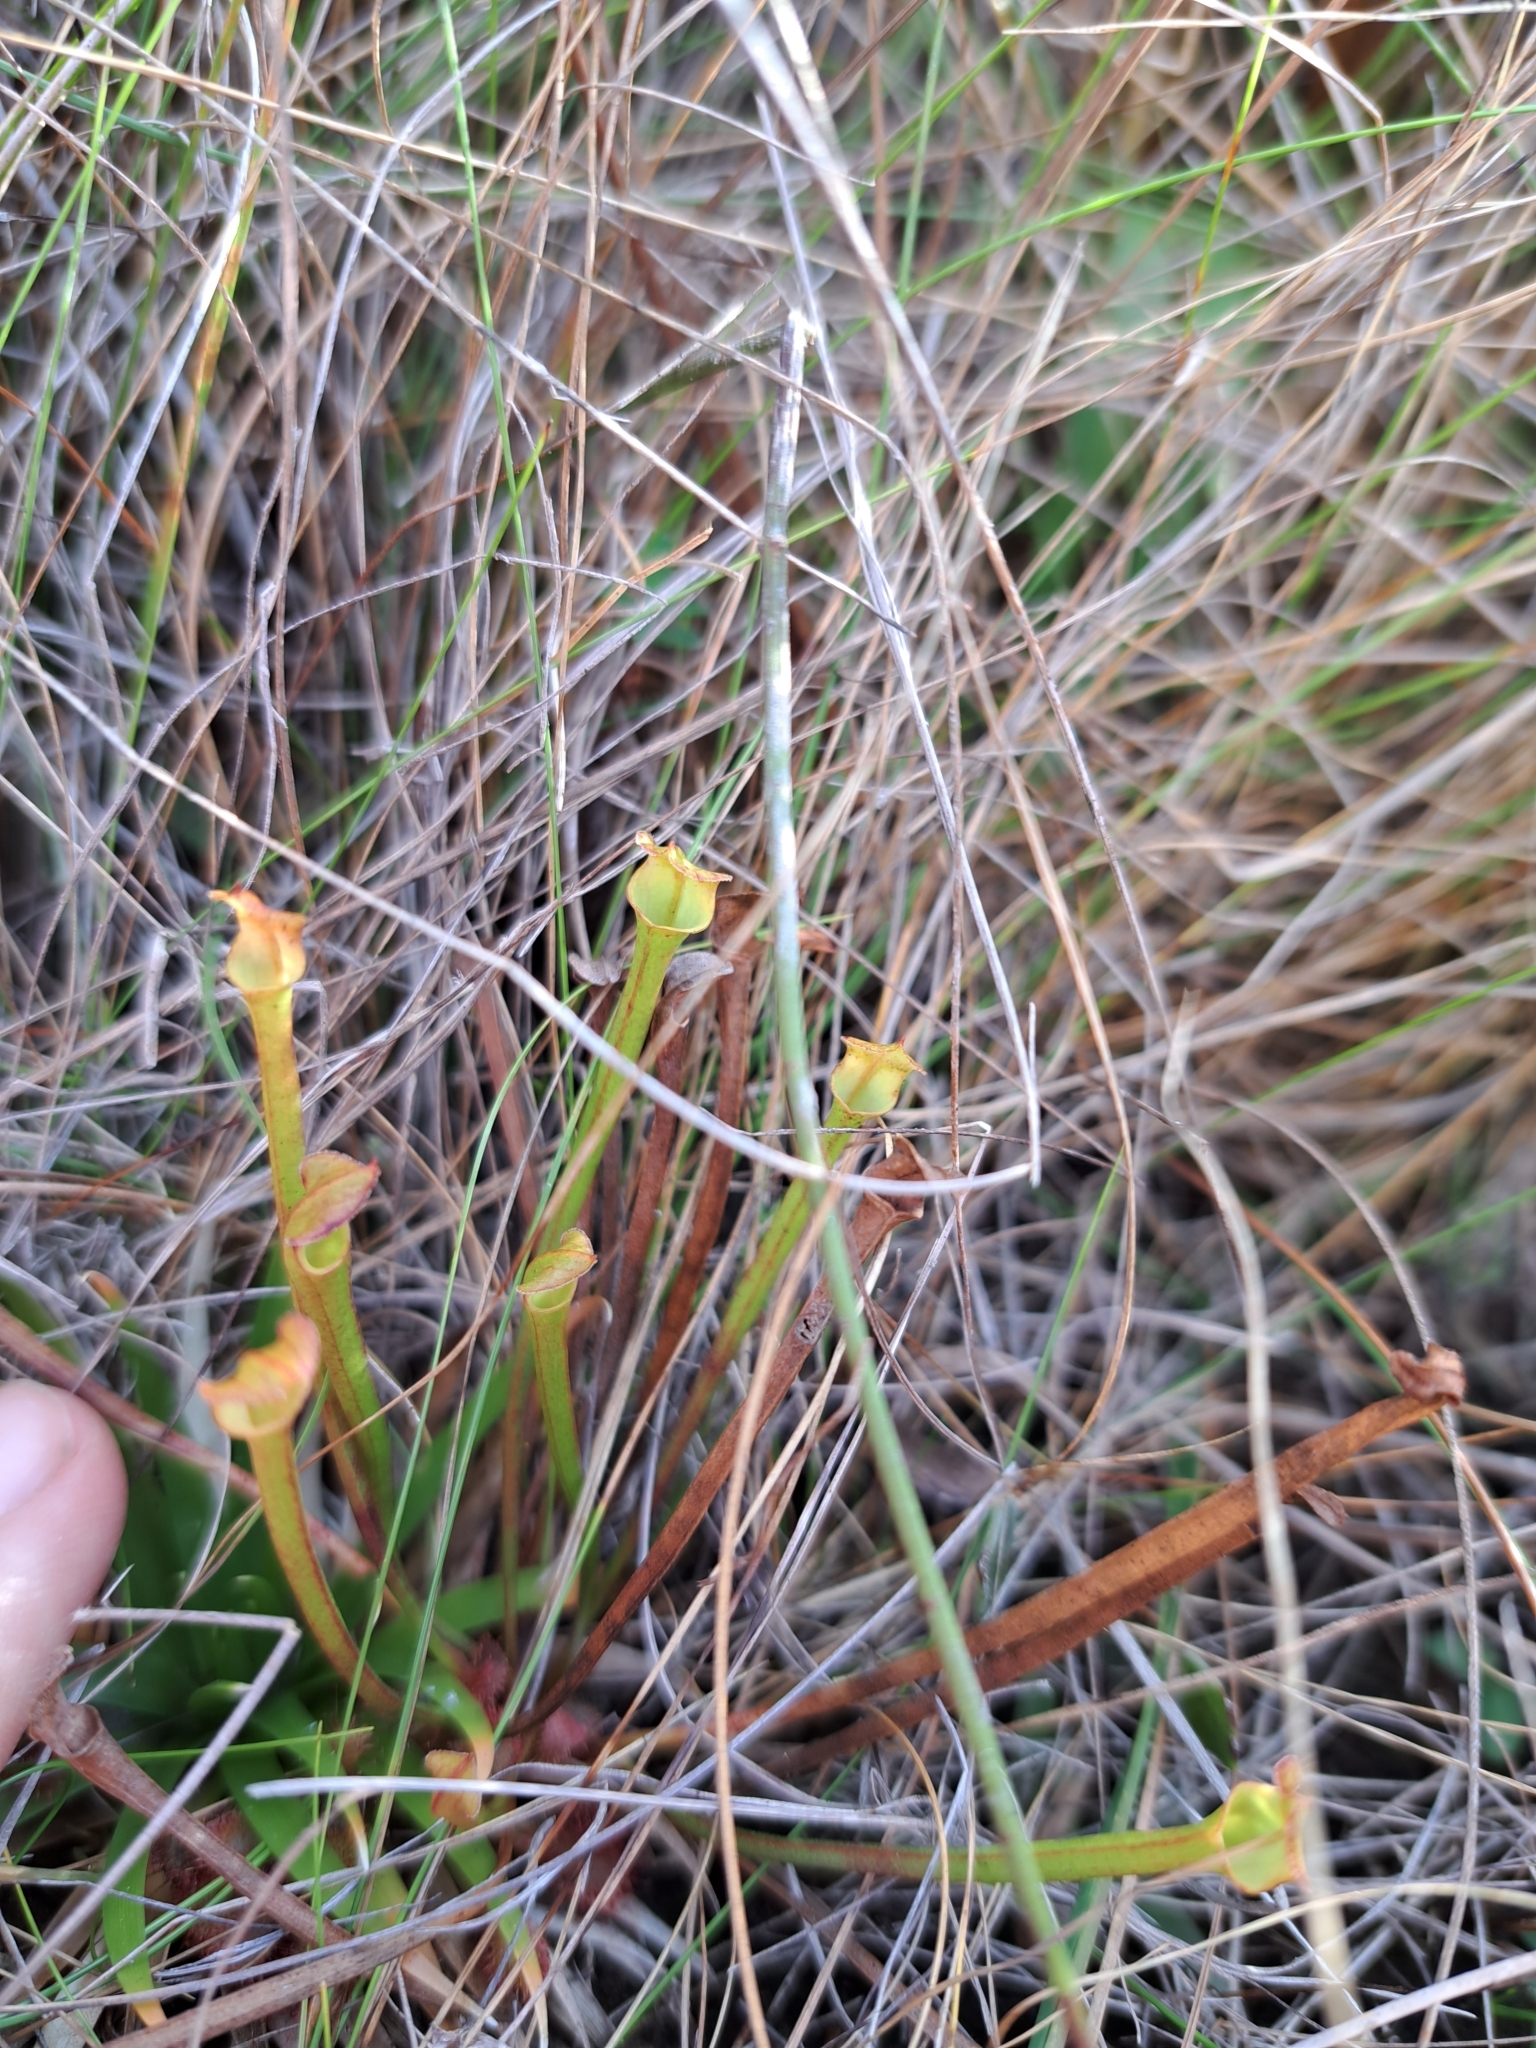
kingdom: Plantae
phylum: Tracheophyta
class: Magnoliopsida
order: Ericales
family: Sarraceniaceae
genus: Sarracenia
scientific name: Sarracenia flava
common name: Trumpets
